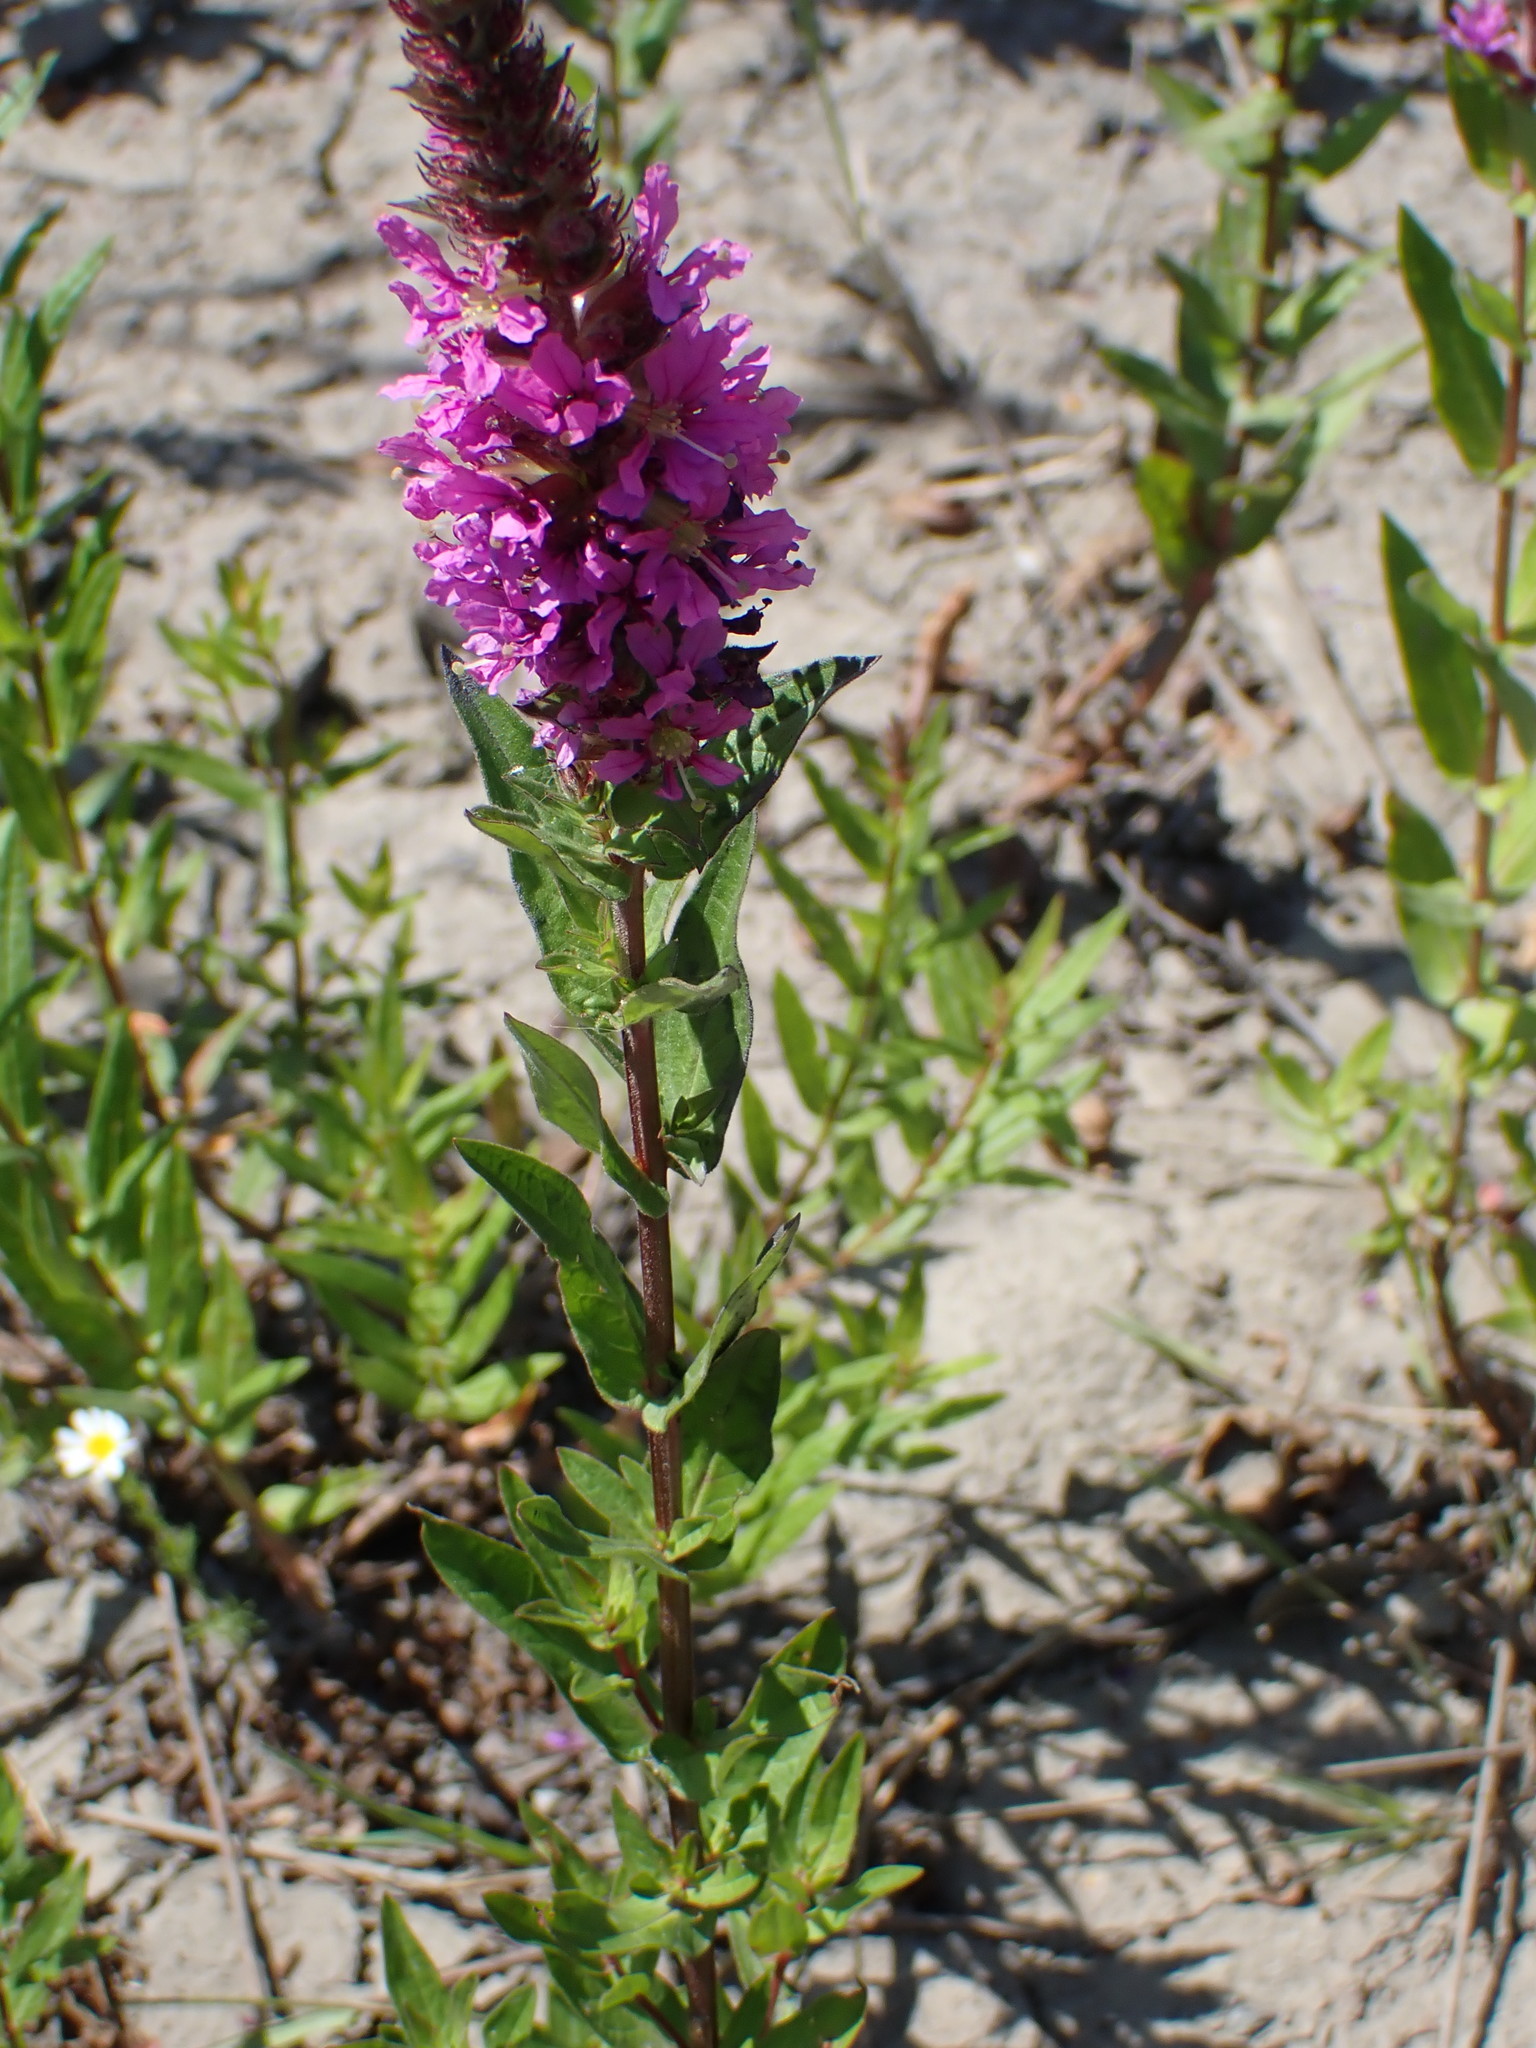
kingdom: Plantae
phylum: Tracheophyta
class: Magnoliopsida
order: Myrtales
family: Lythraceae
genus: Lythrum
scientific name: Lythrum salicaria
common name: Purple loosestrife
